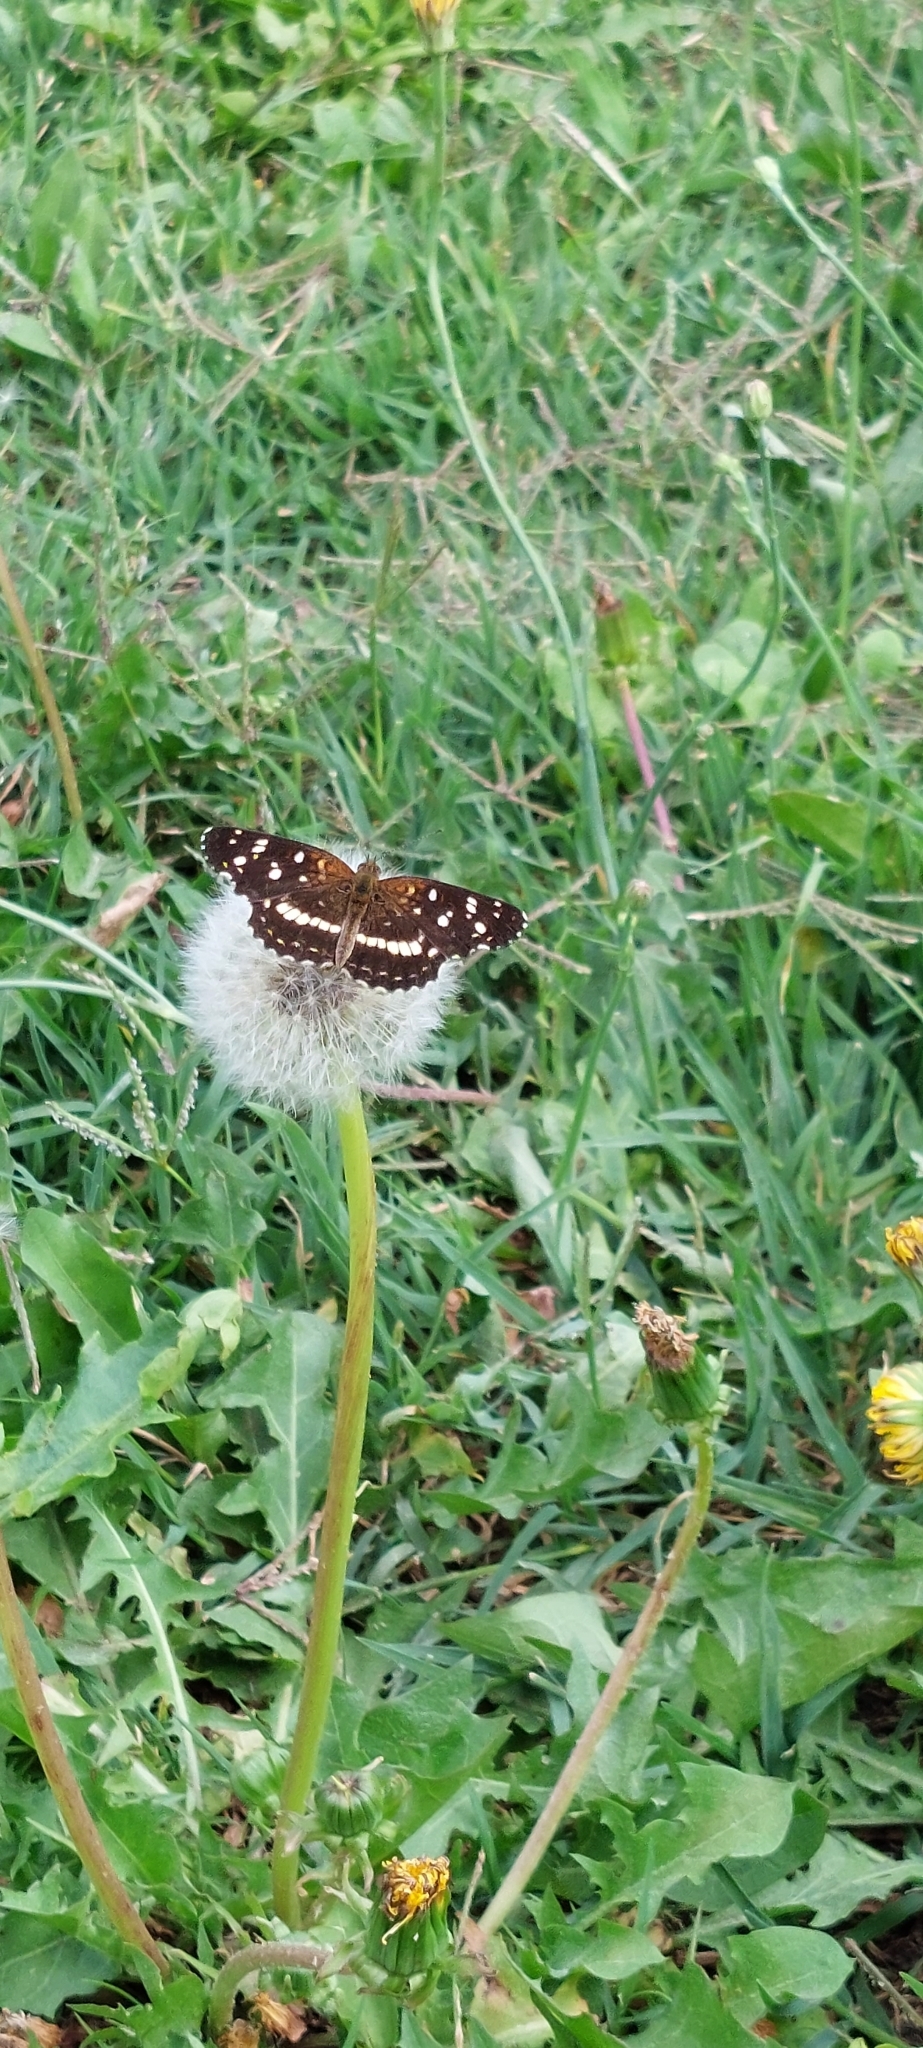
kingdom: Animalia
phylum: Arthropoda
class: Insecta
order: Lepidoptera
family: Nymphalidae
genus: Ortilia
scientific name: Ortilia ithra
